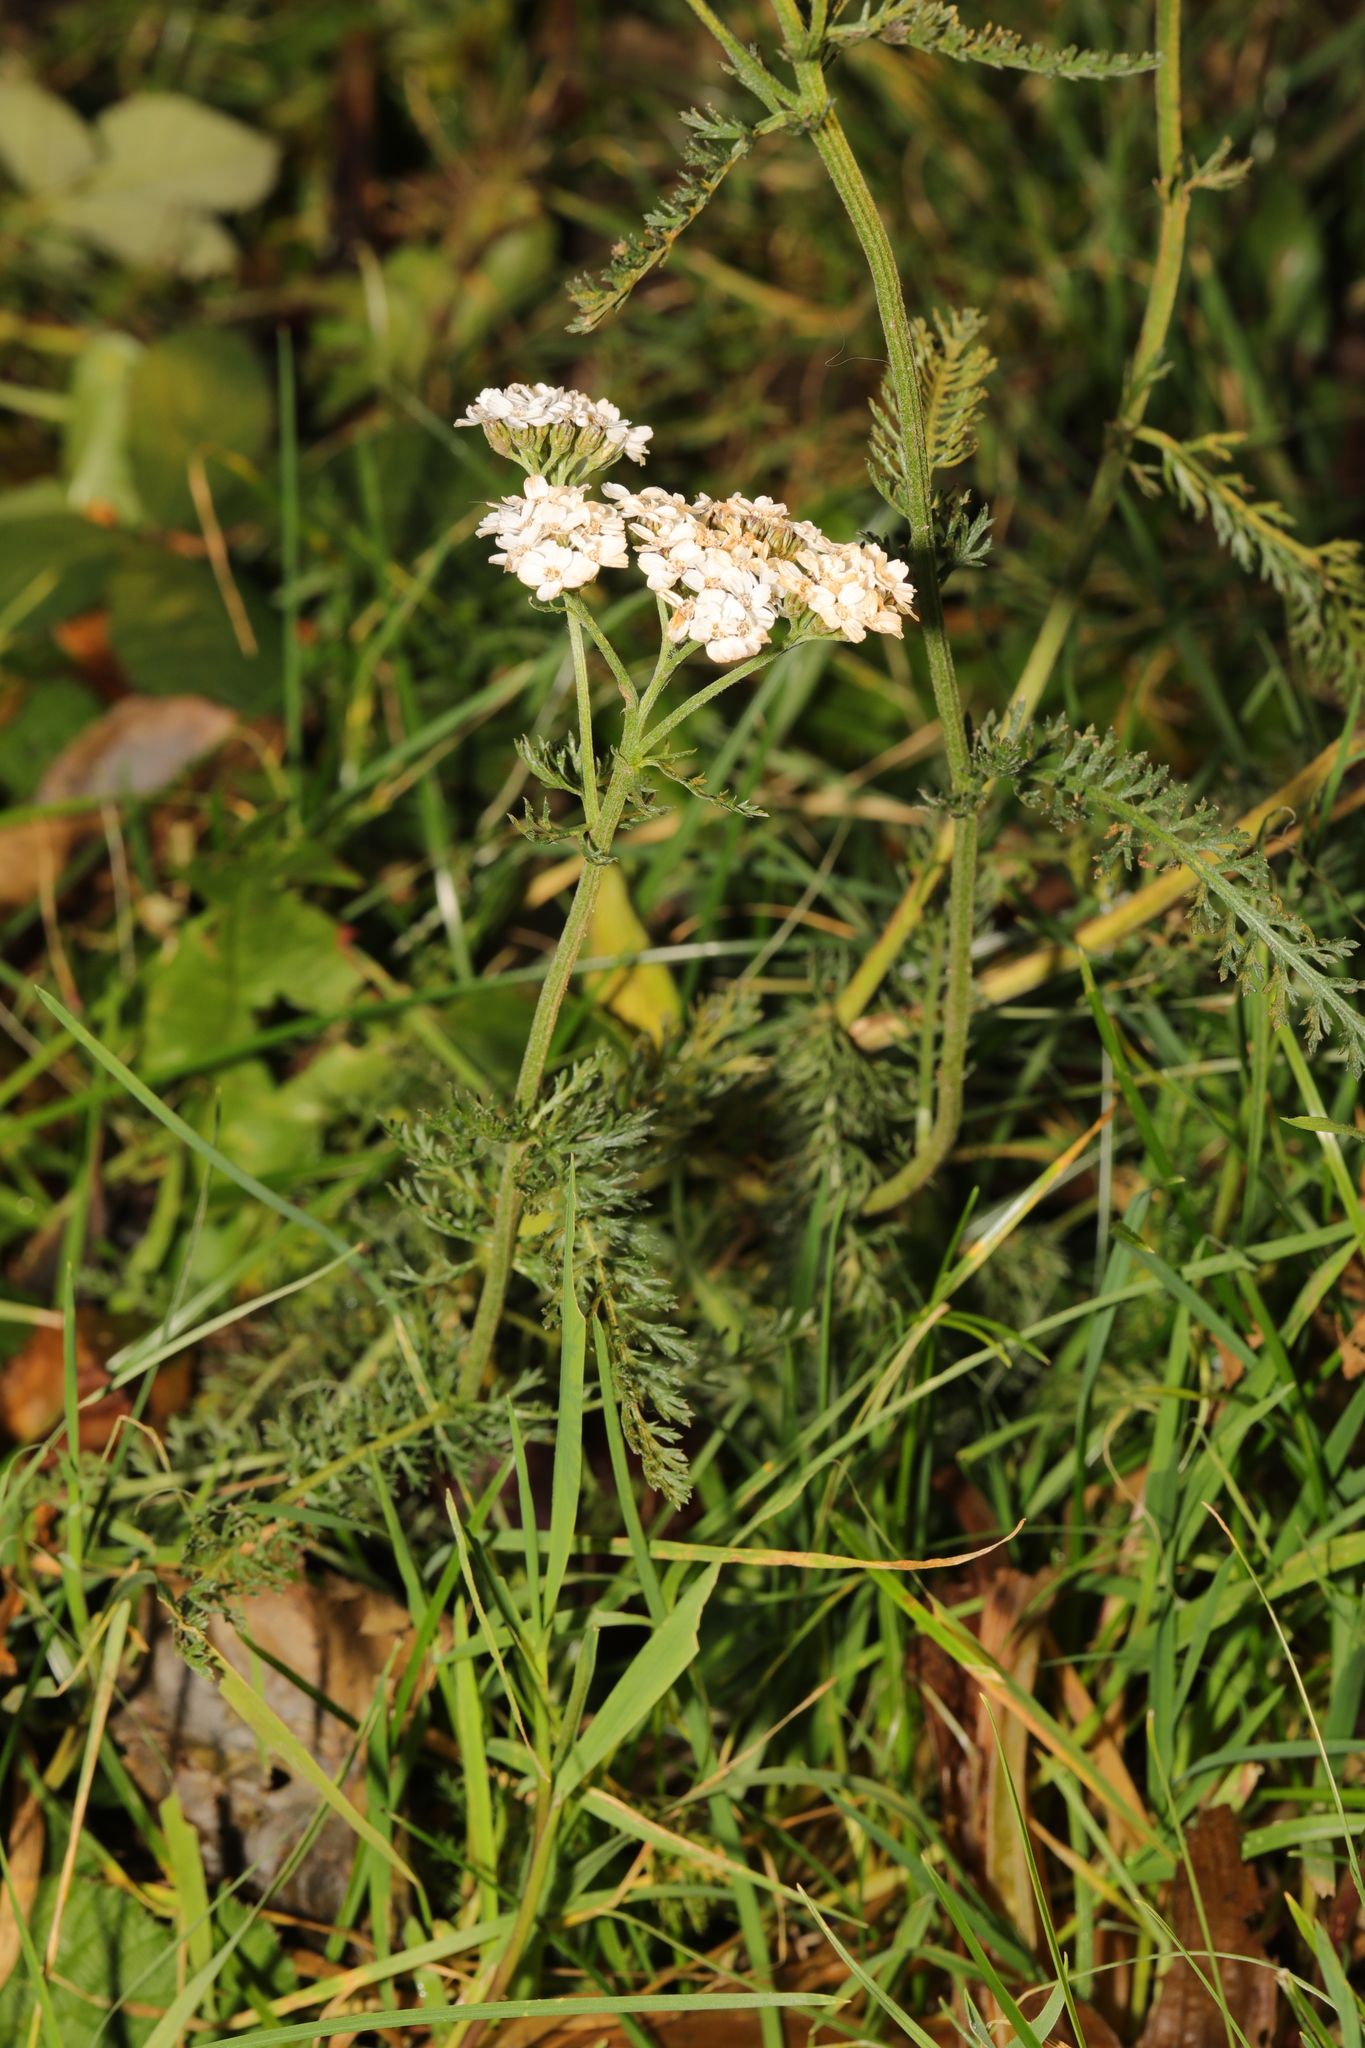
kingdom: Plantae
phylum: Tracheophyta
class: Magnoliopsida
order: Asterales
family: Asteraceae
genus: Achillea
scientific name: Achillea millefolium
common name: Yarrow
